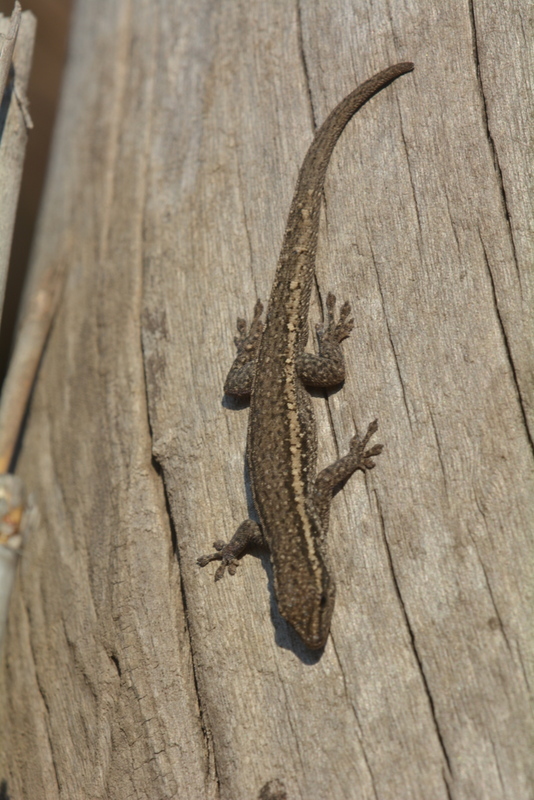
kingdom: Animalia
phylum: Chordata
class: Squamata
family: Gekkonidae
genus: Lygodactylus
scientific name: Lygodactylus capensis
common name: Cape dwarf gecko
